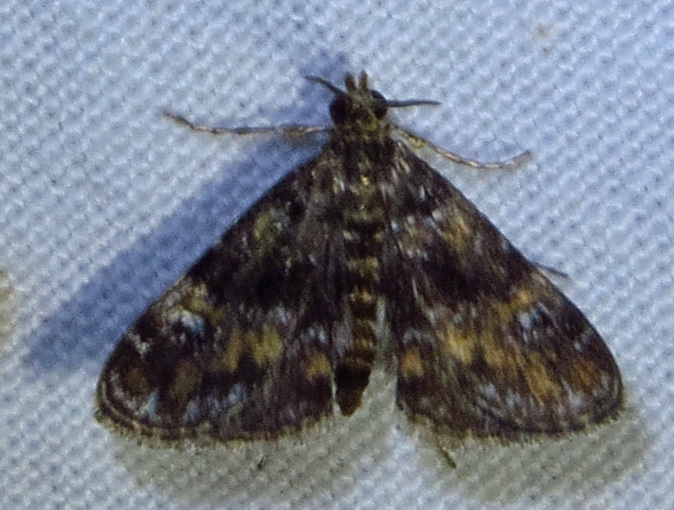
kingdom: Animalia
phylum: Arthropoda
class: Insecta
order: Lepidoptera
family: Crambidae
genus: Elophila
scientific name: Elophila obliteralis
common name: Waterlily leafcutter moth
